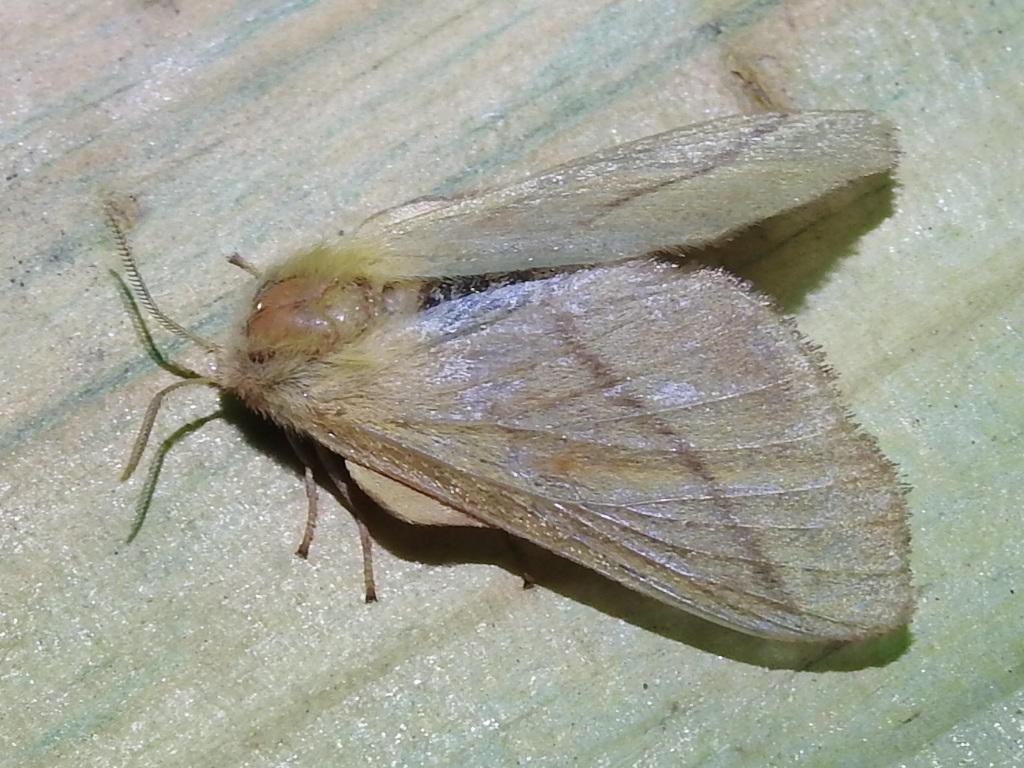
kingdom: Animalia
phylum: Arthropoda
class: Insecta
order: Lepidoptera
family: Lasiocampidae
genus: Malacosoma
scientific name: Malacosoma disstria
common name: Forest tent caterpillar
